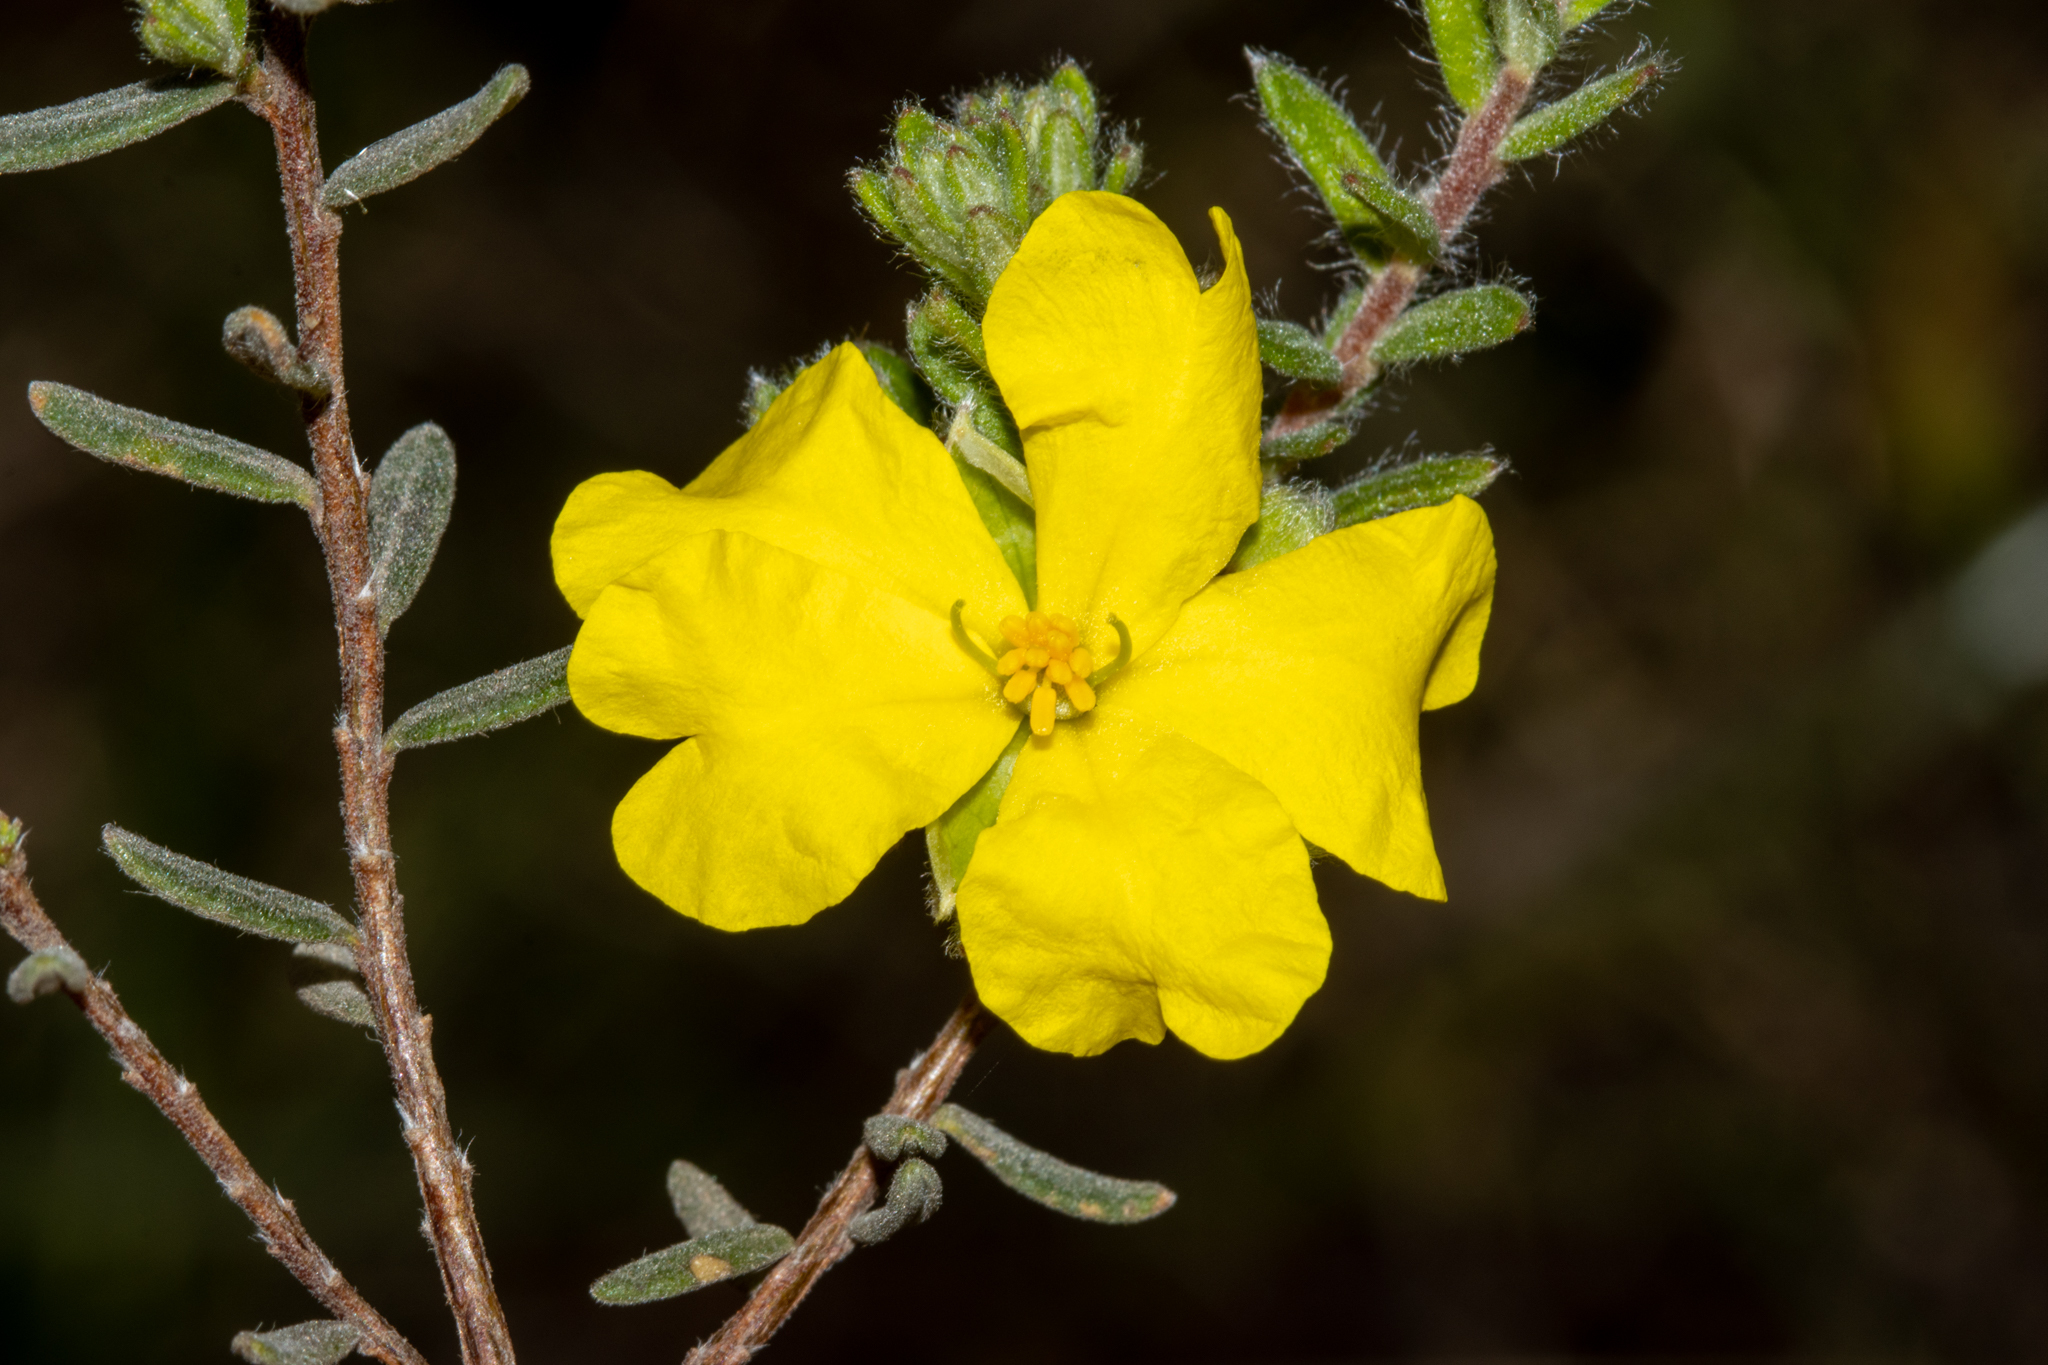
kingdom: Plantae
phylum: Tracheophyta
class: Magnoliopsida
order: Dilleniales
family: Dilleniaceae
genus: Hibbertia
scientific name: Hibbertia crinita
